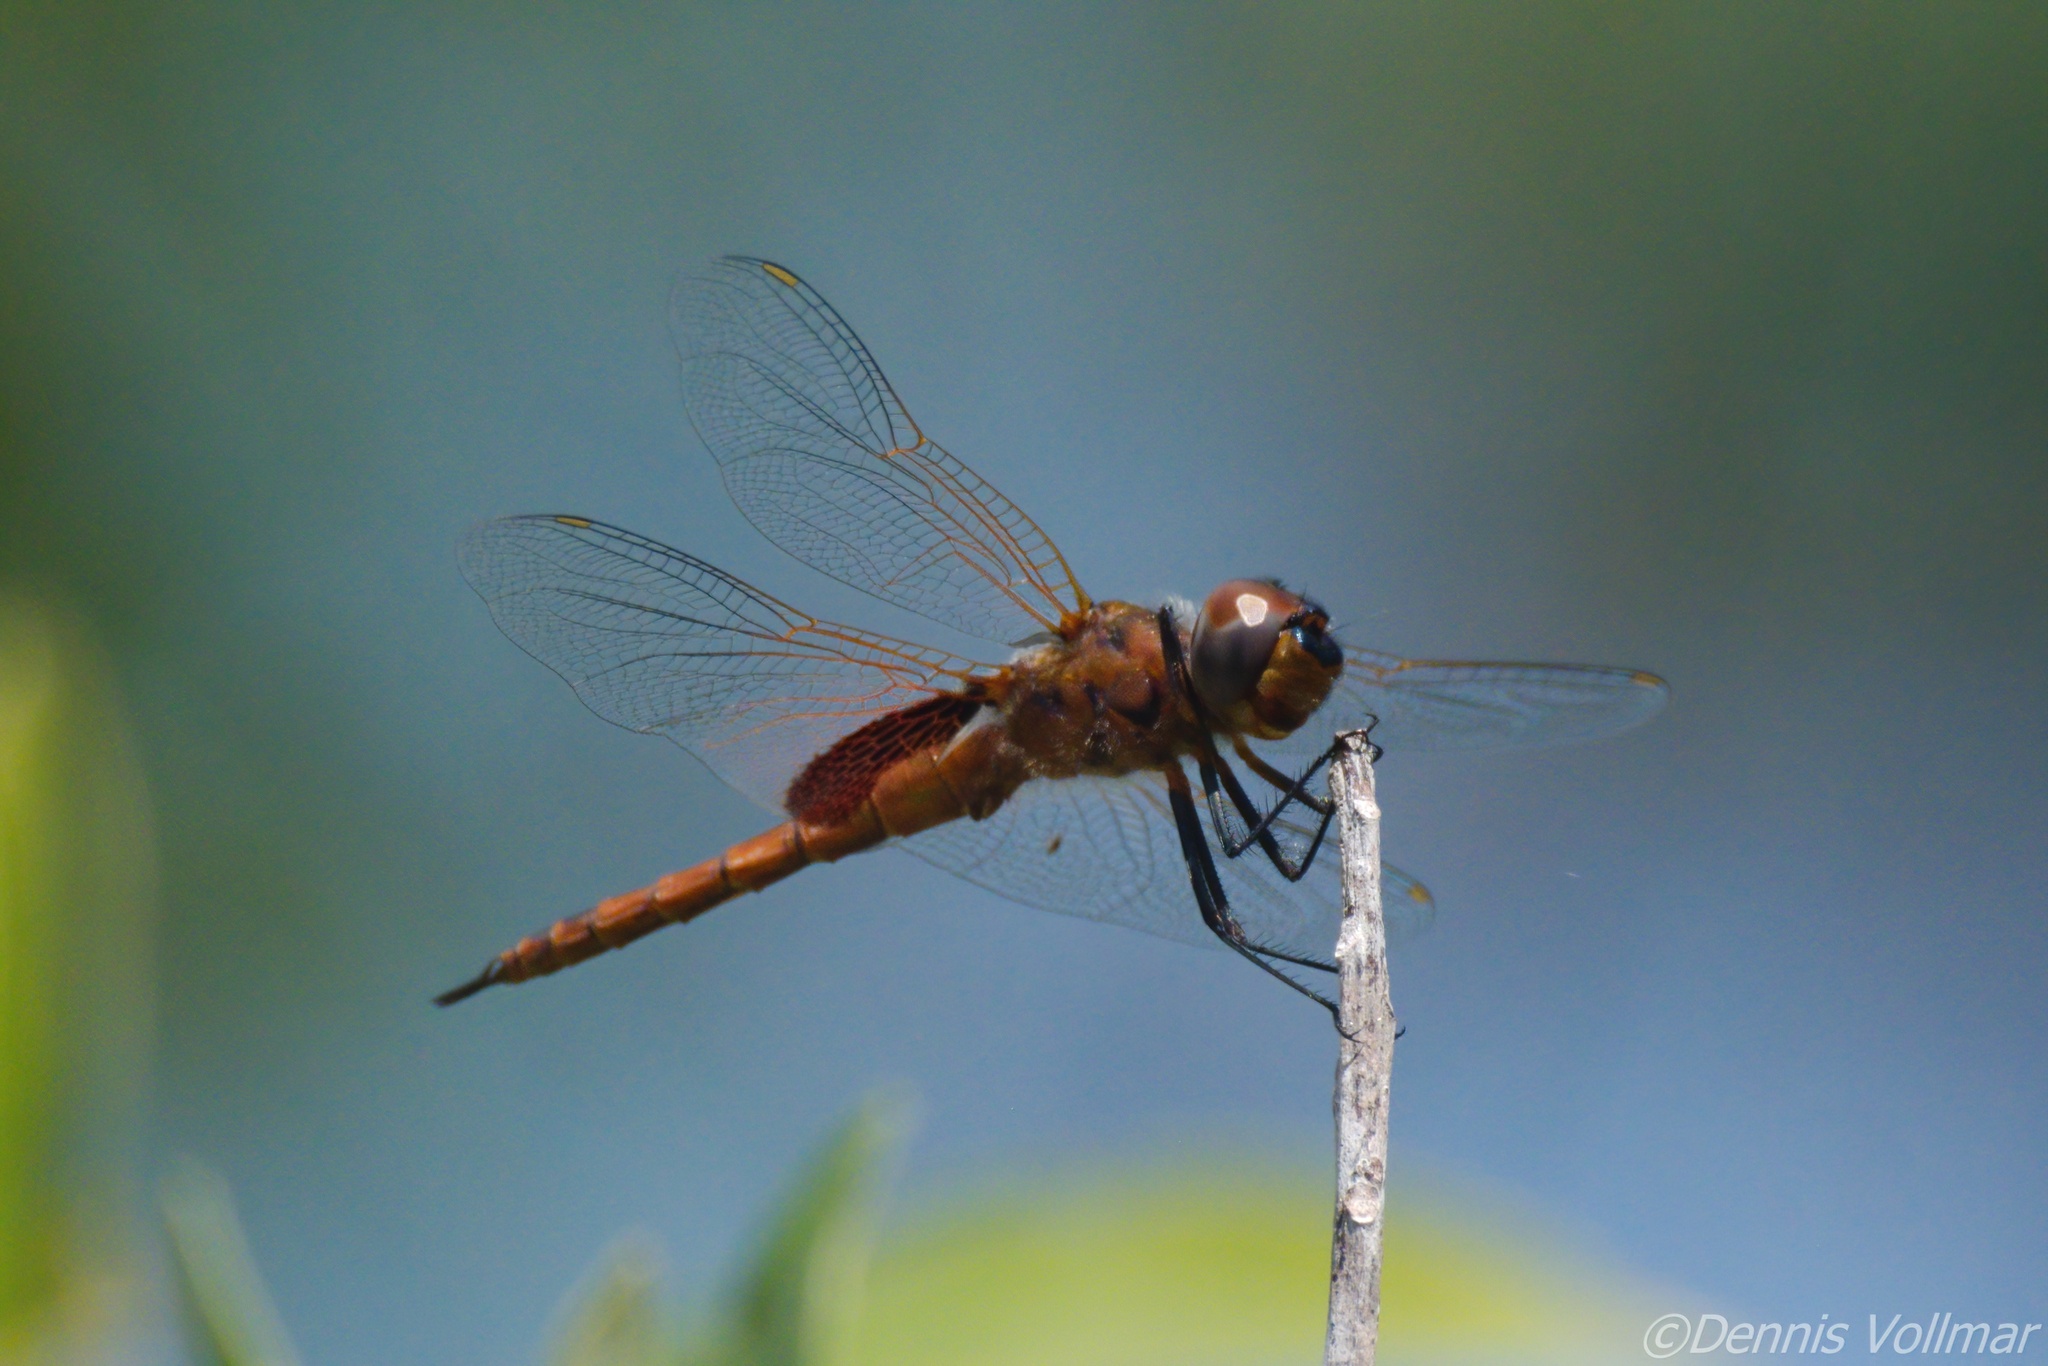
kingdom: Animalia
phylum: Arthropoda
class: Insecta
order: Odonata
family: Libellulidae
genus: Tramea
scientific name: Tramea insularis
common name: Antillean saddlebags
